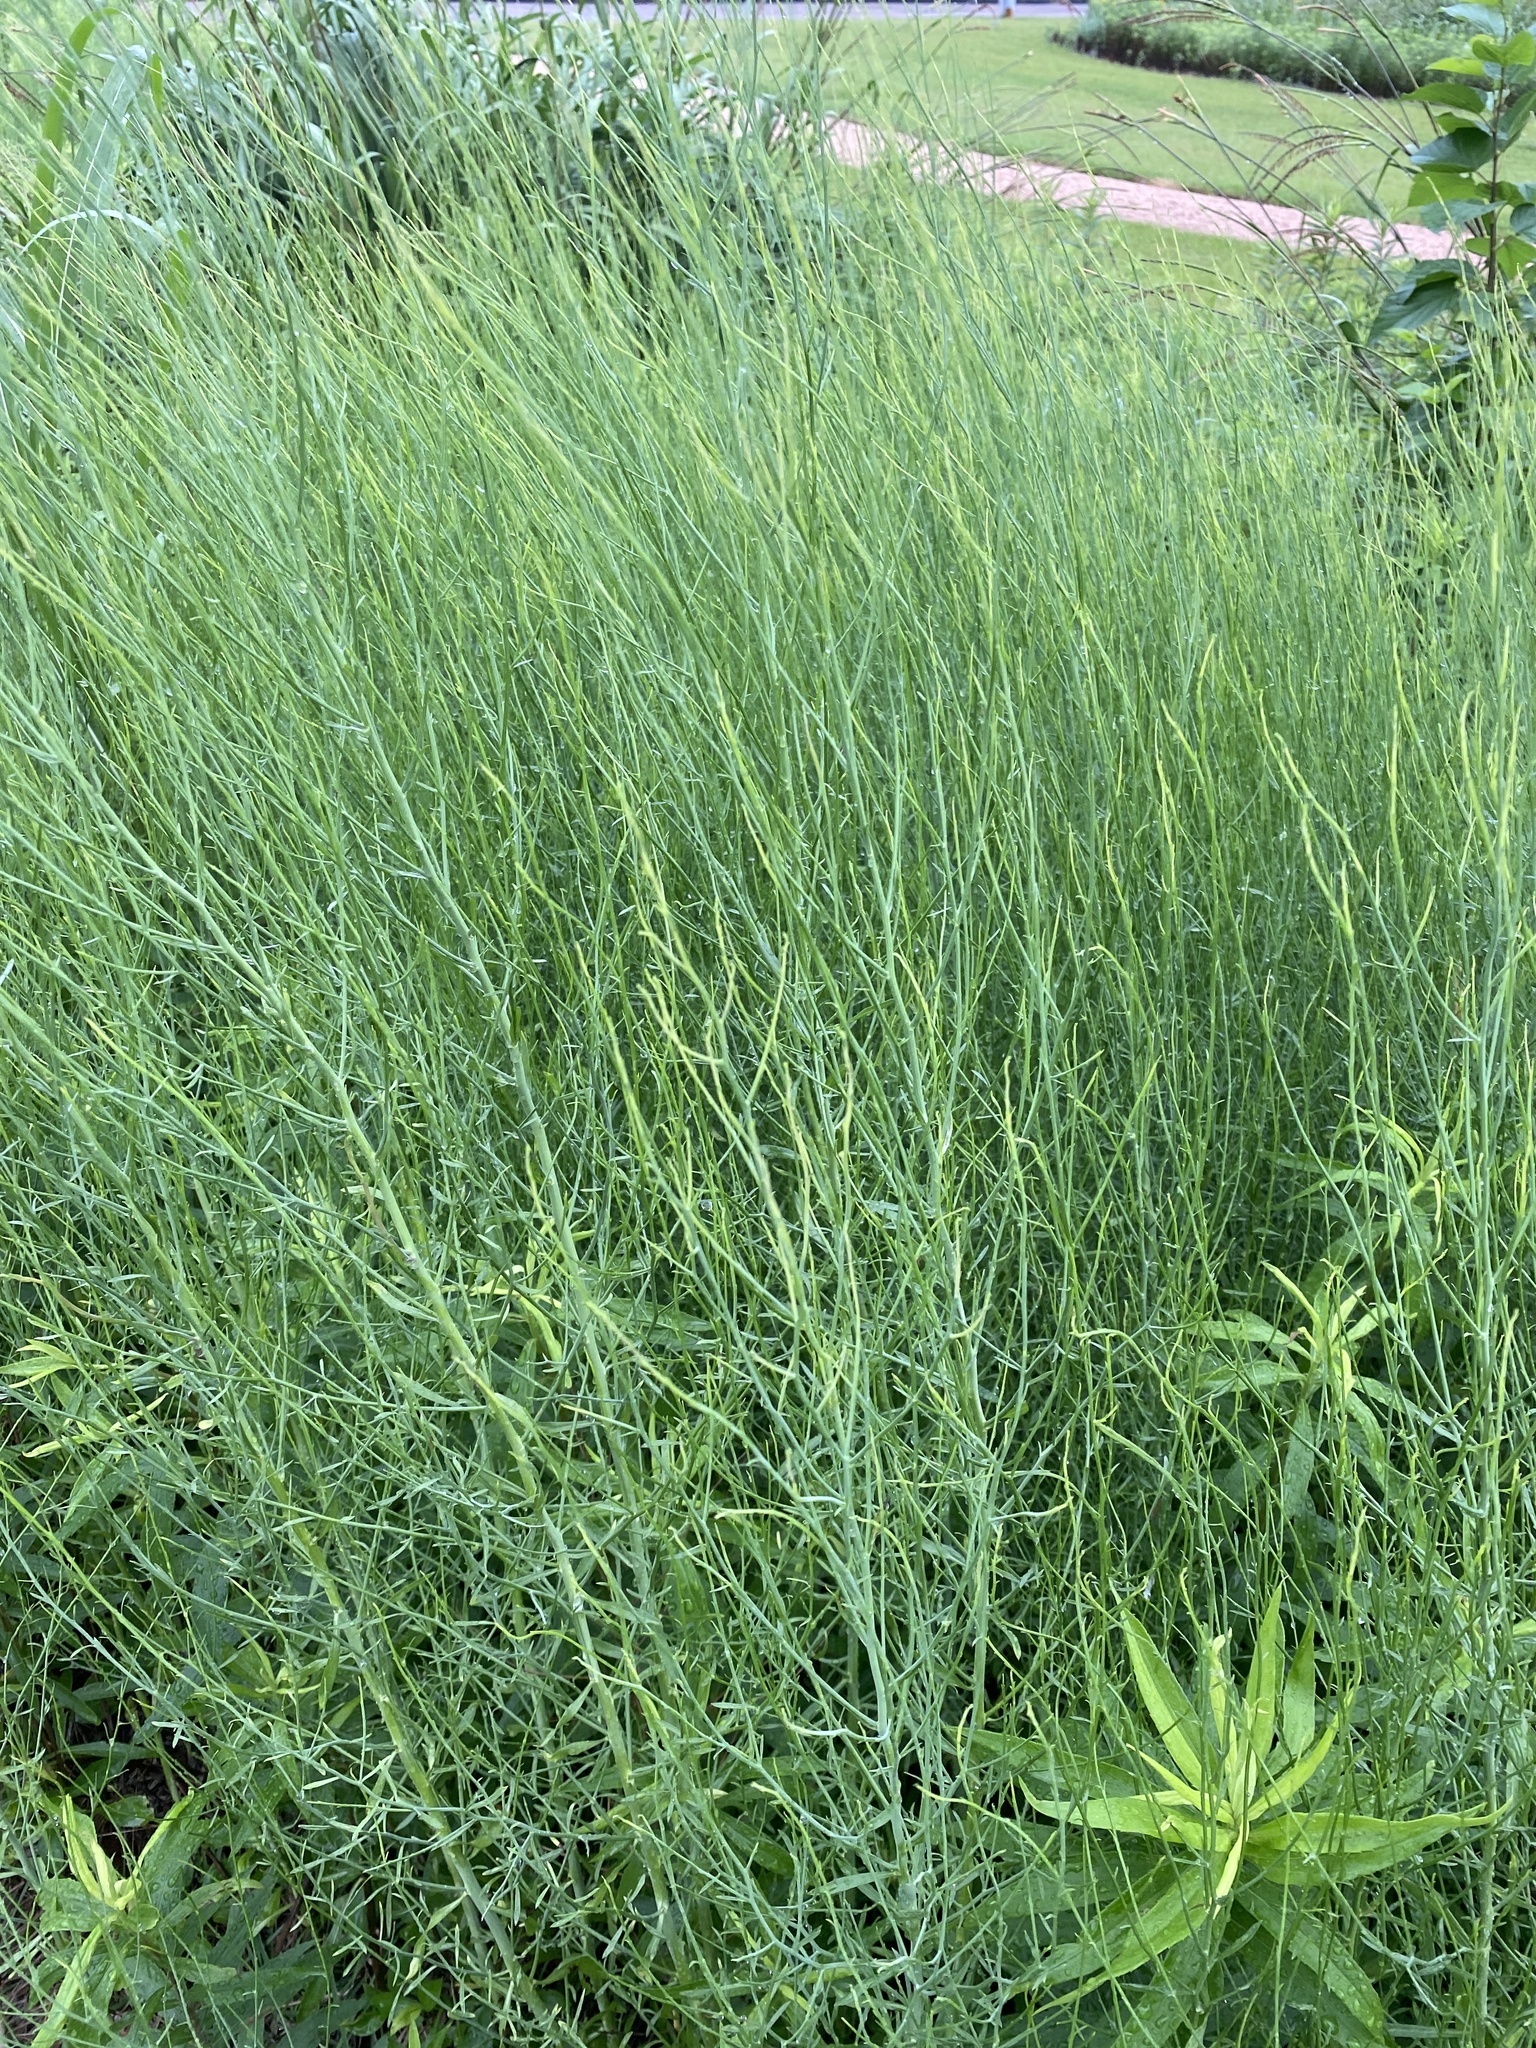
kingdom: Plantae
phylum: Tracheophyta
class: Magnoliopsida
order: Asterales
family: Asteraceae
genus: Chloracantha
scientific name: Chloracantha spinosa
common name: Mexican devilweed
